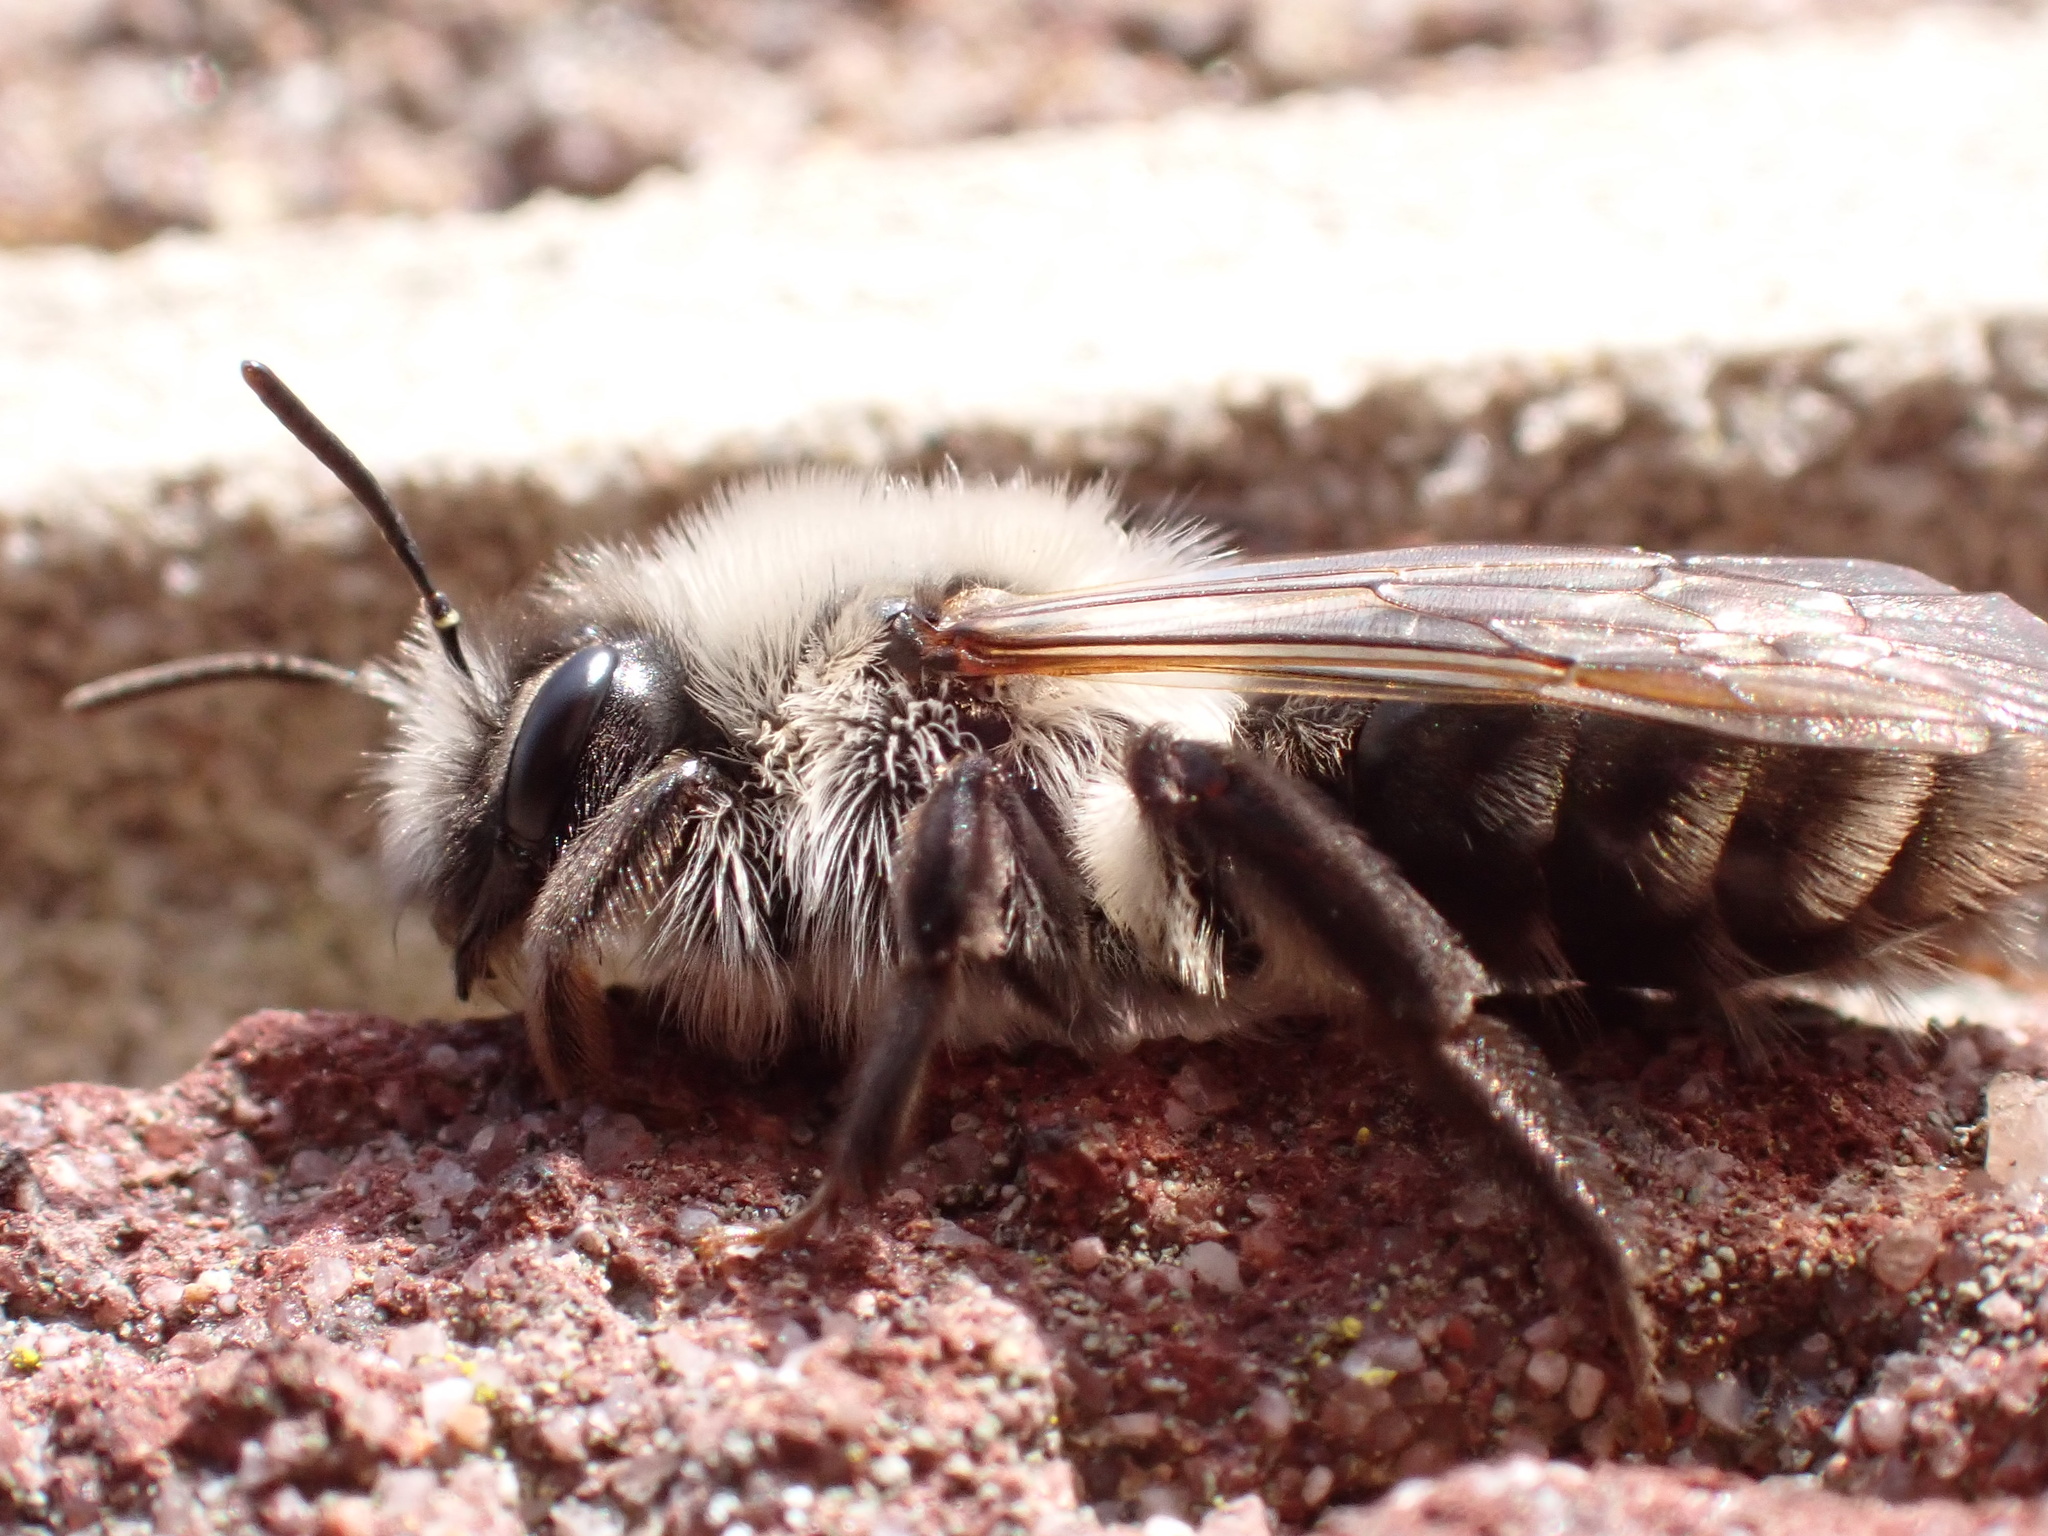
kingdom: Animalia
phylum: Arthropoda
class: Insecta
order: Hymenoptera
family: Andrenidae
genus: Andrena
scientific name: Andrena vaga
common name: Grey-backed mining bee
